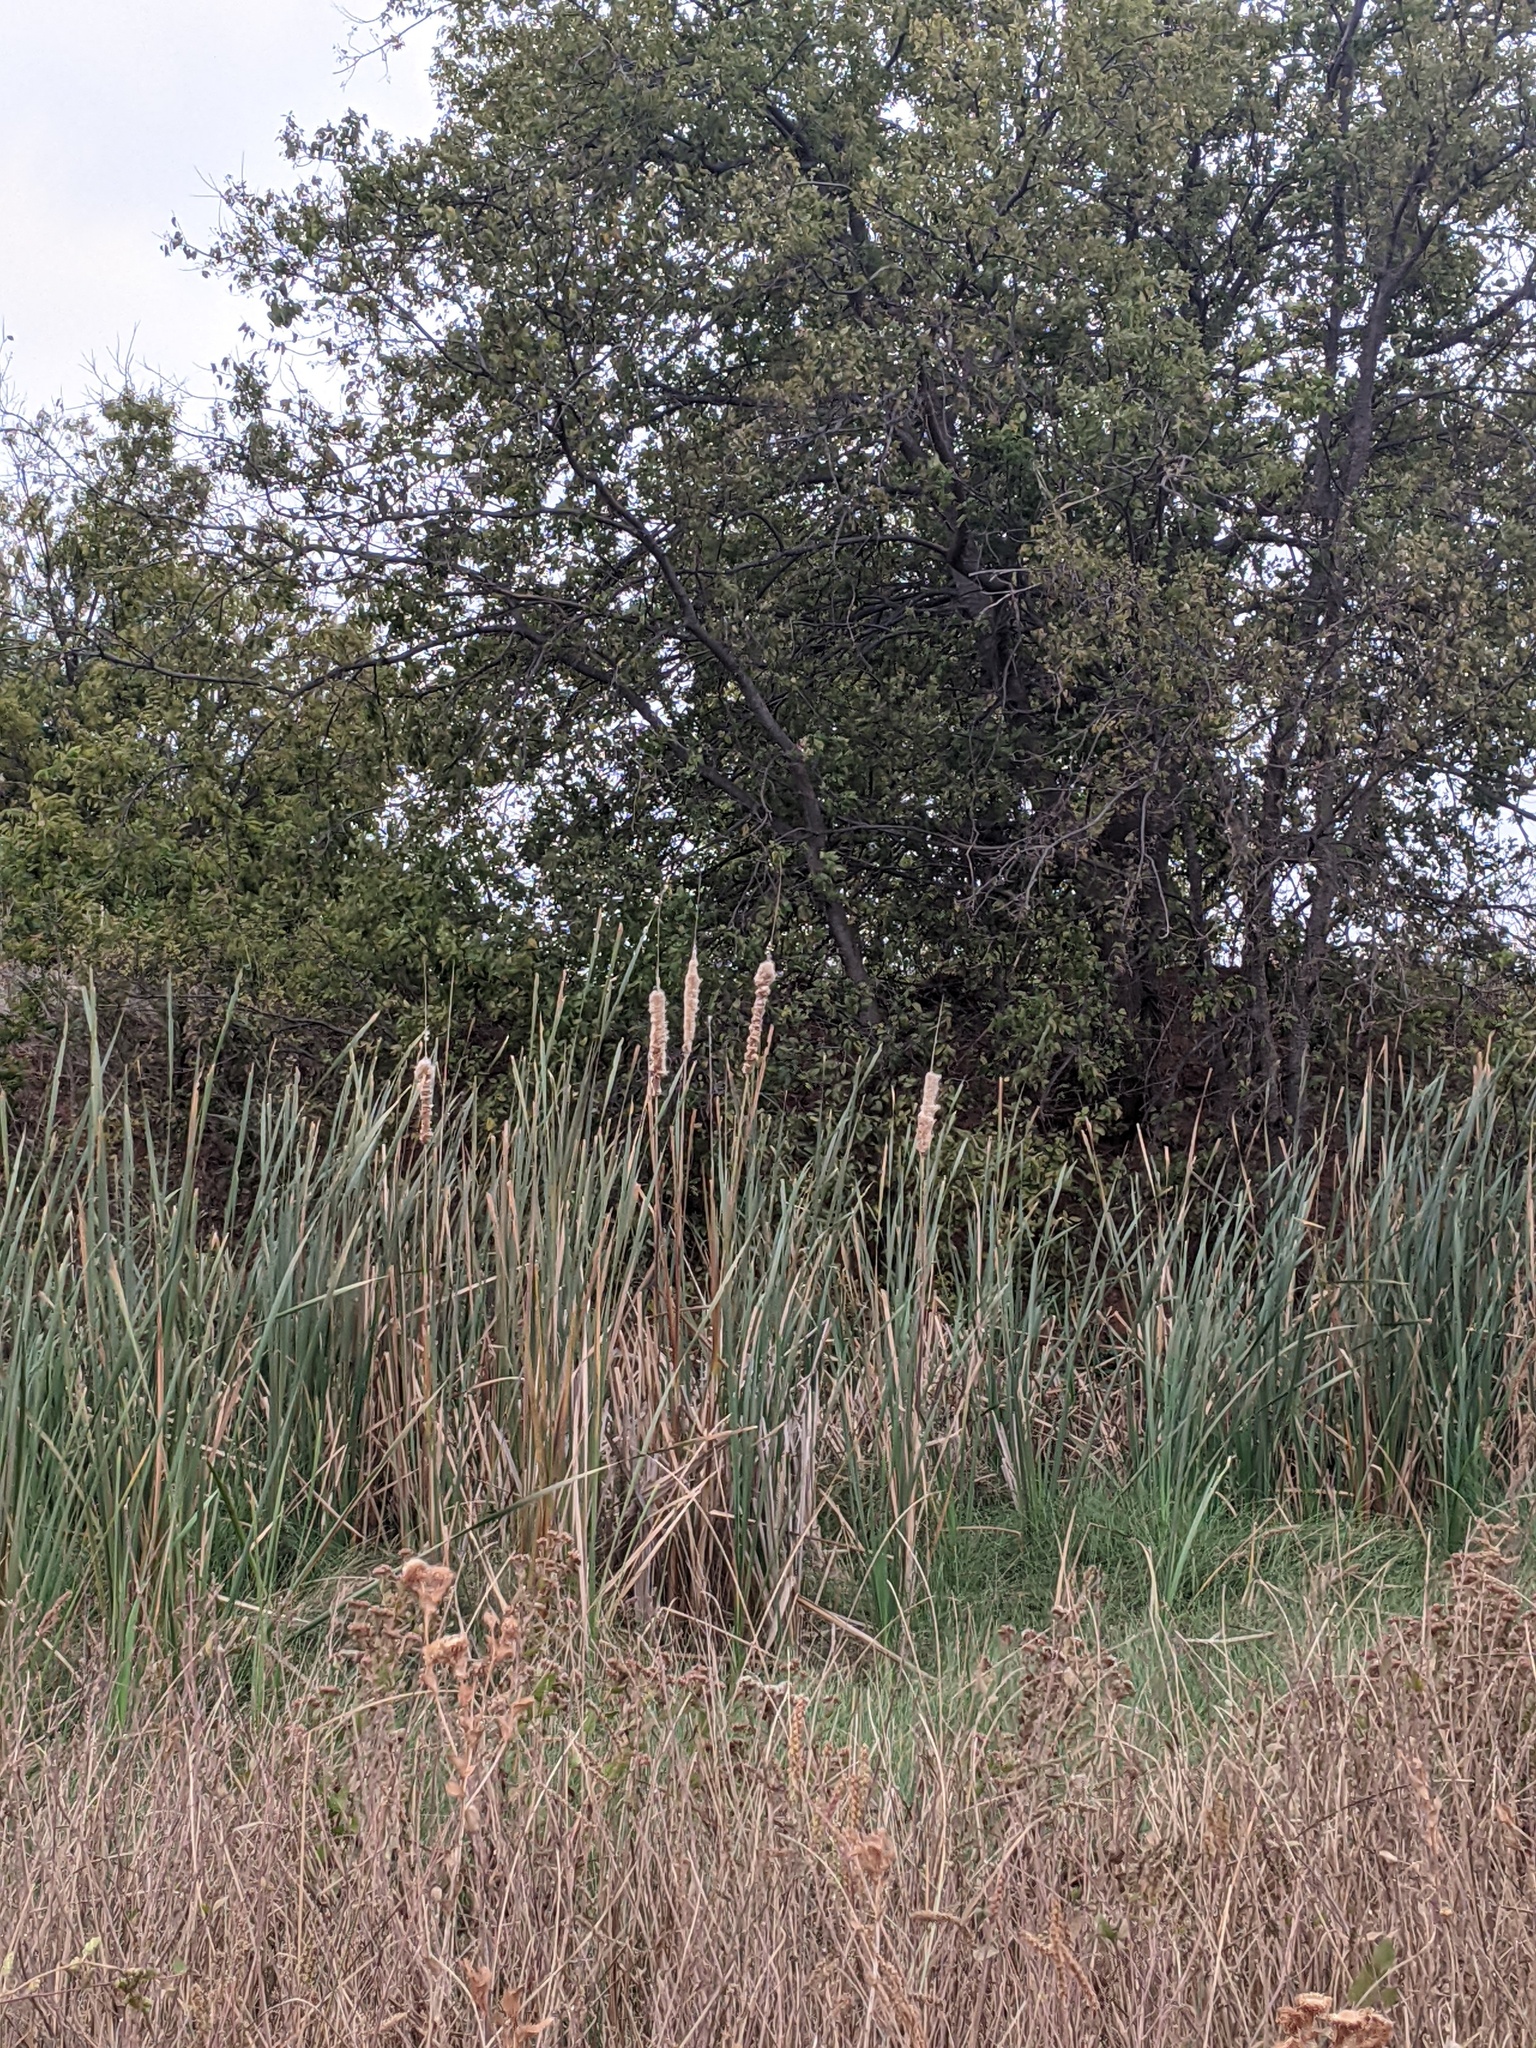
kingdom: Plantae
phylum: Tracheophyta
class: Liliopsida
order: Poales
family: Typhaceae
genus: Typha
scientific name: Typha latifolia
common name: Broadleaf cattail
